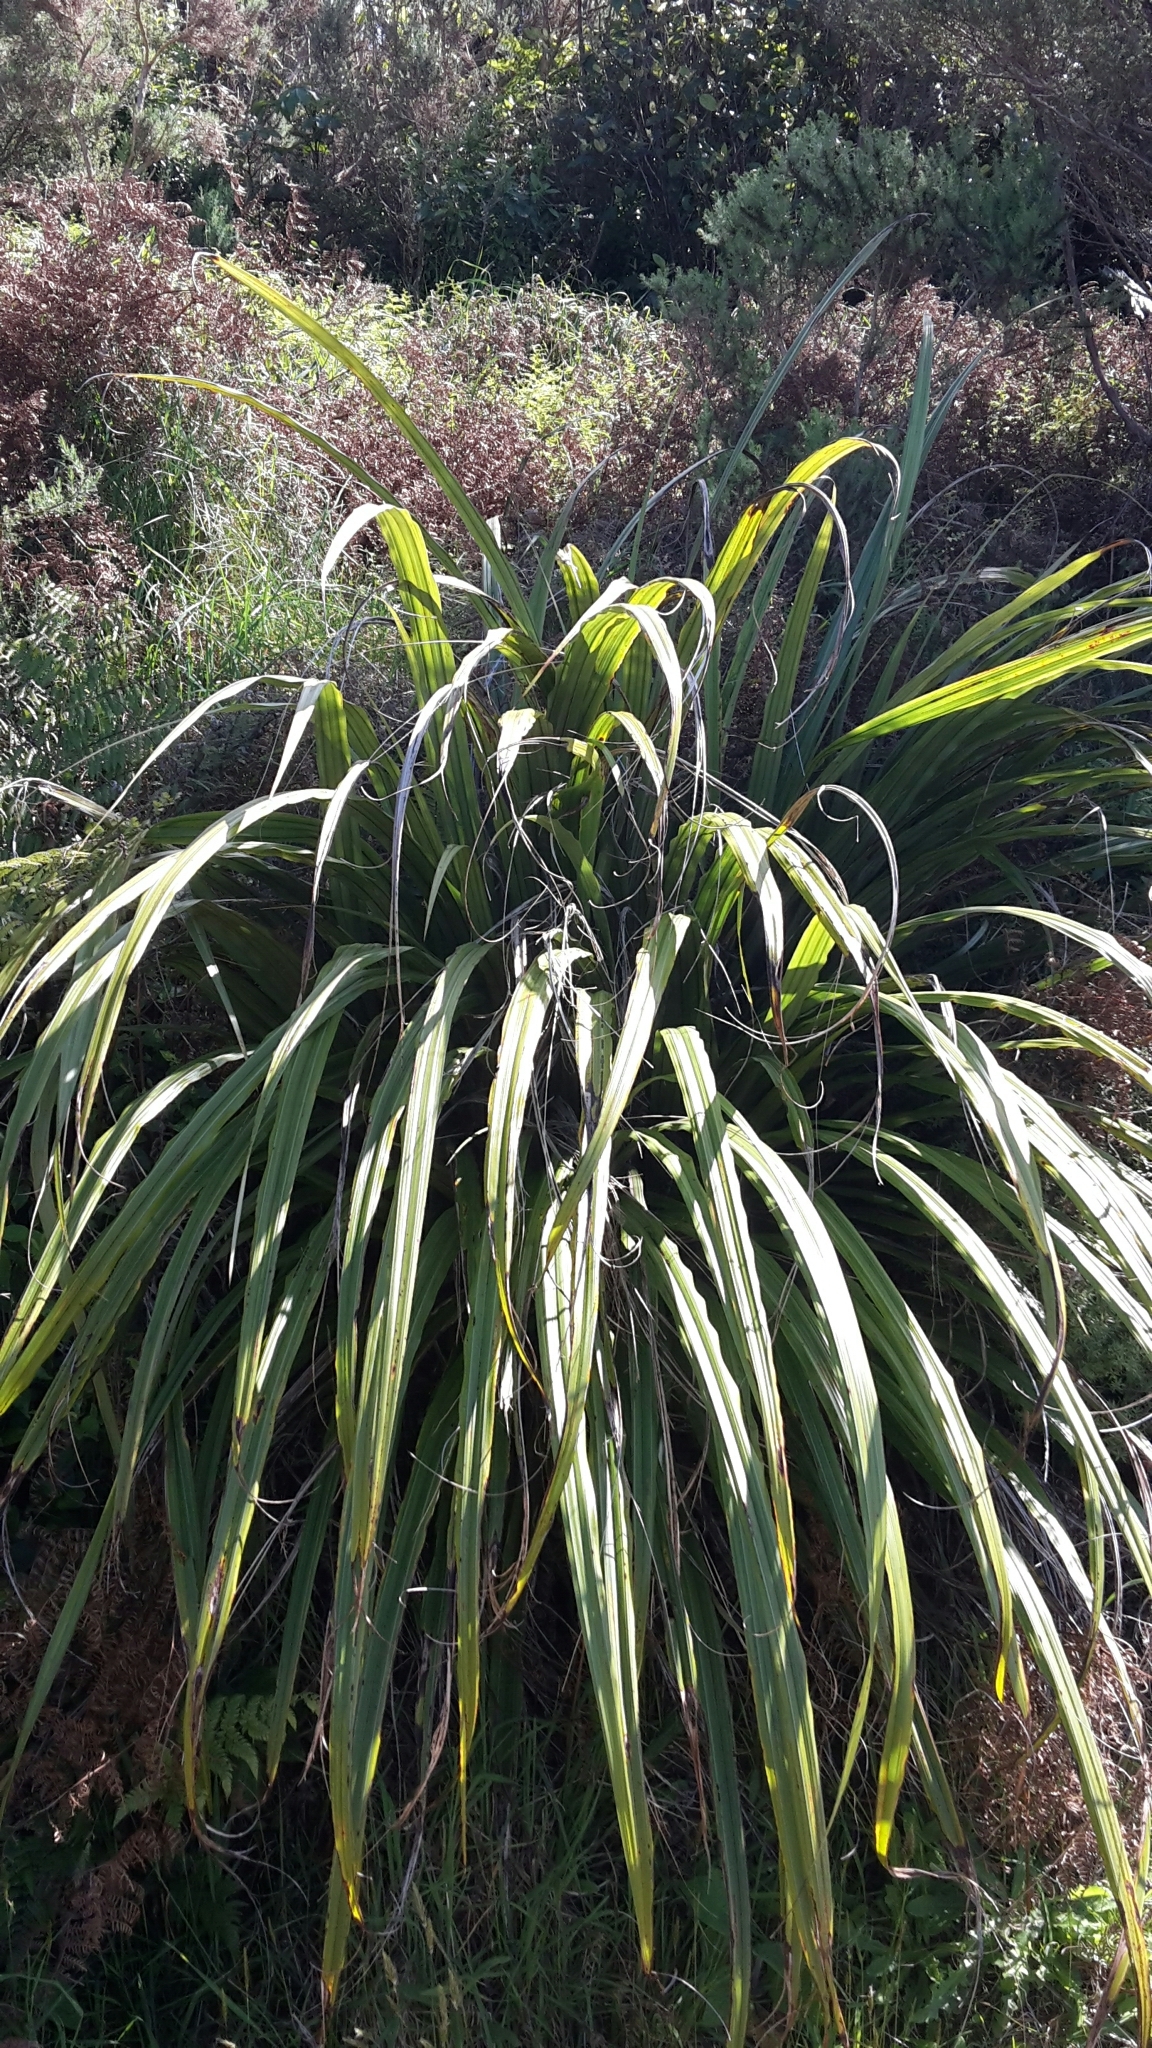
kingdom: Plantae
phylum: Tracheophyta
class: Liliopsida
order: Asparagales
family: Asteliaceae
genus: Astelia
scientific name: Astelia fragrans
